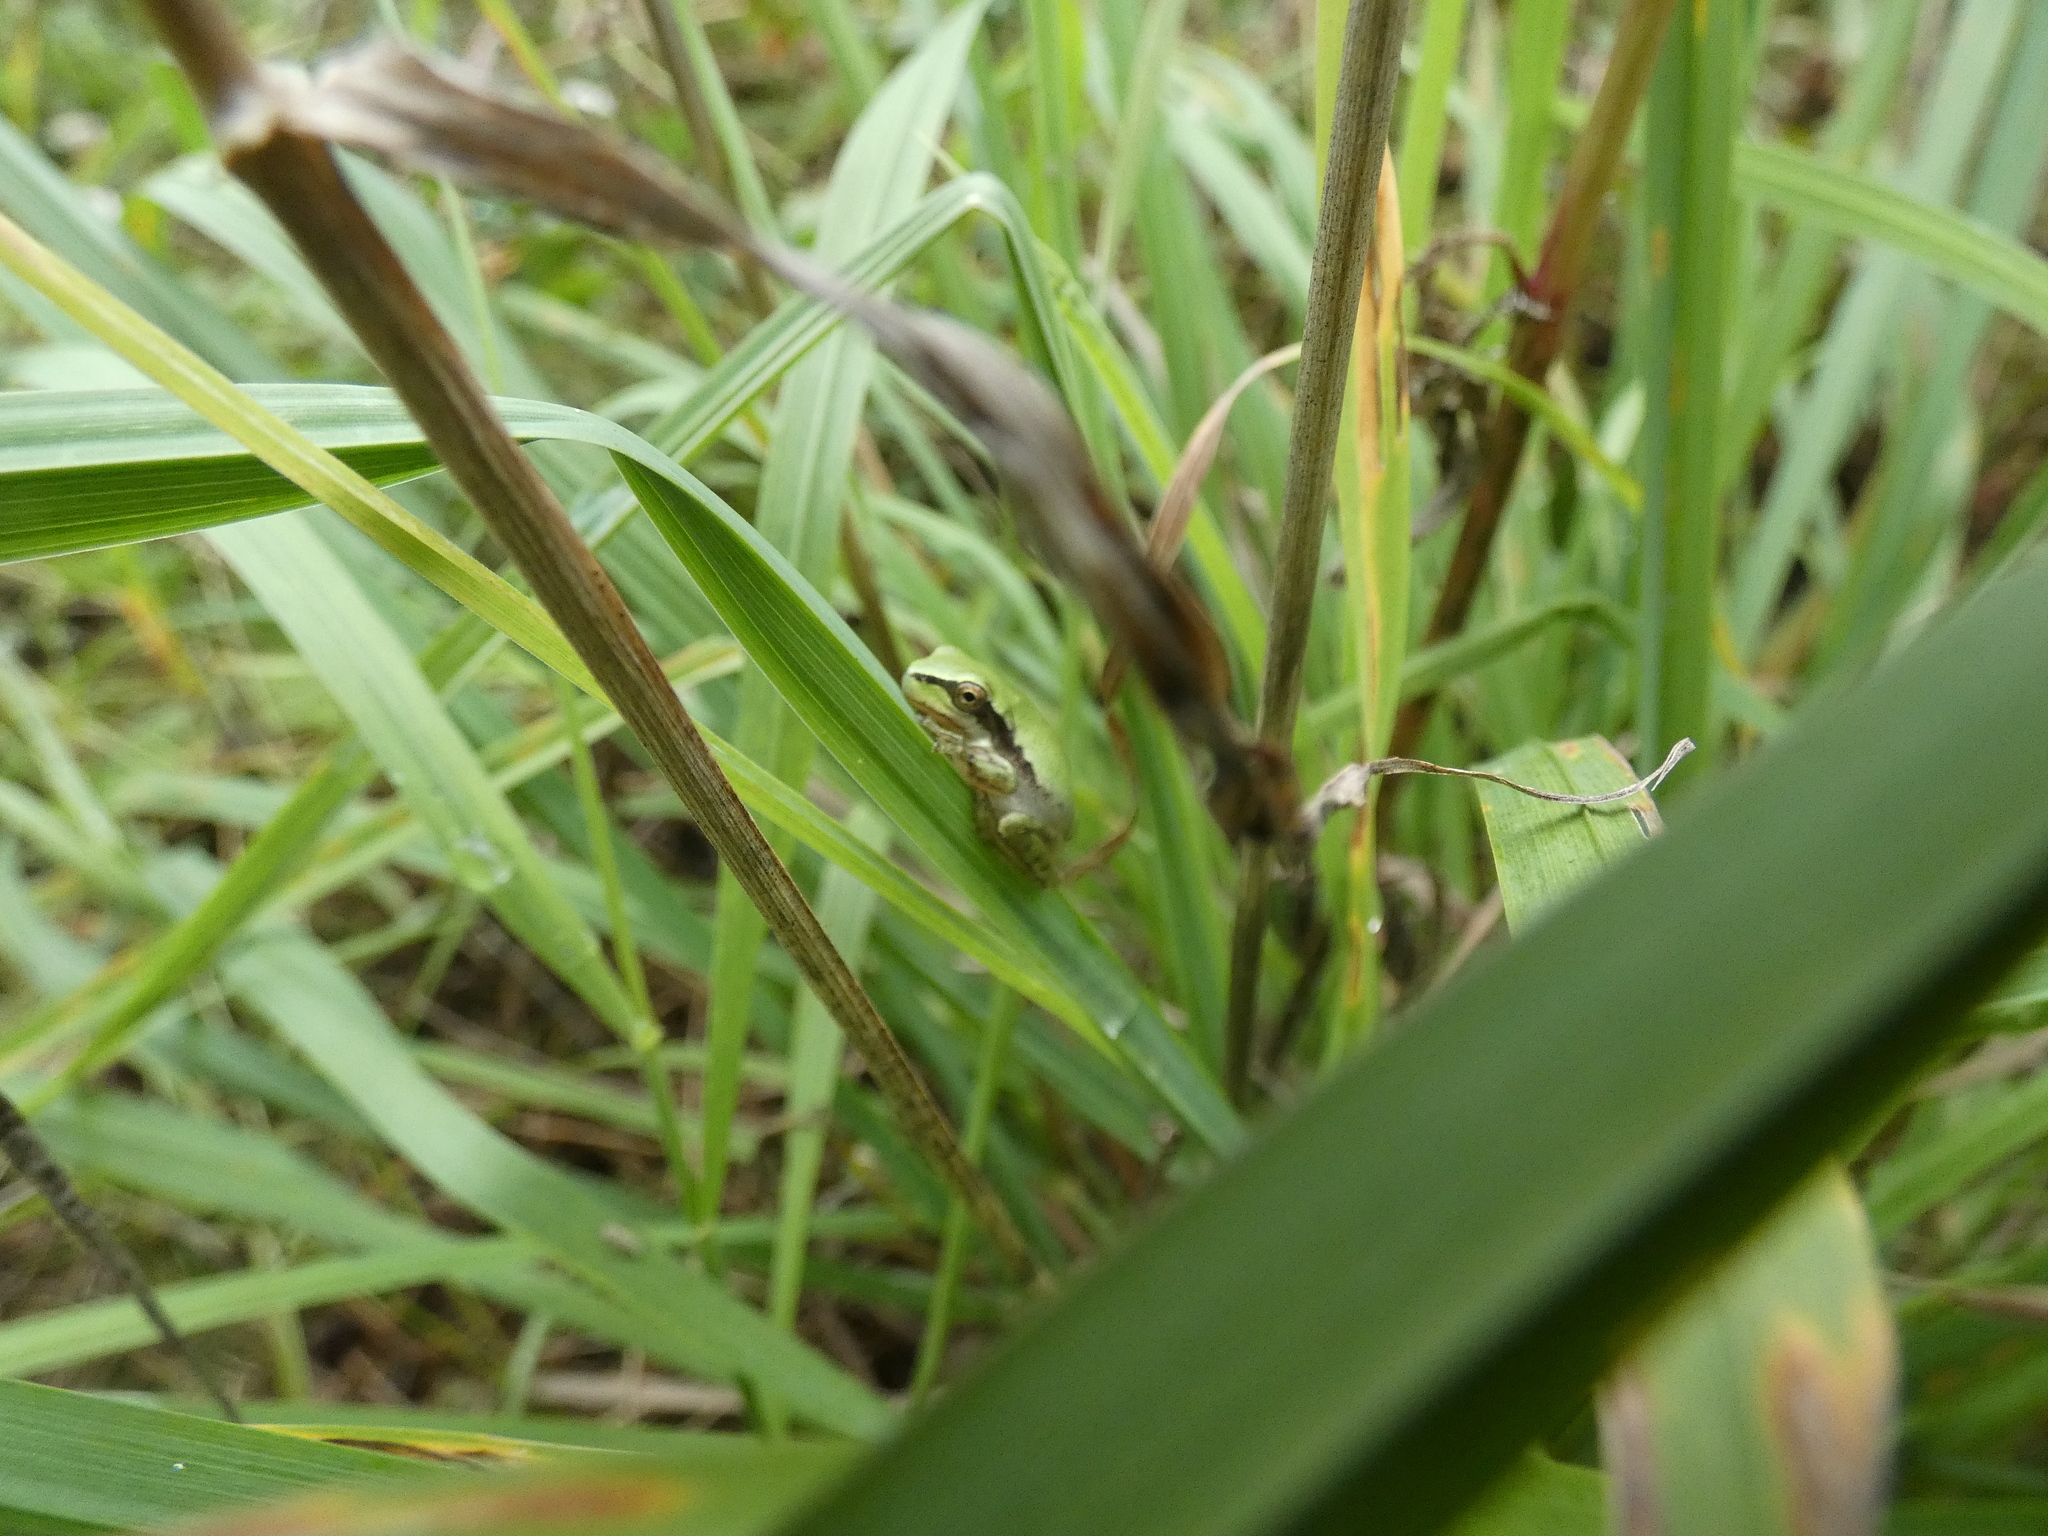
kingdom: Animalia
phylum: Chordata
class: Amphibia
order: Anura
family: Hylidae
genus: Hyla
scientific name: Hyla meridionalis
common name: Stripeless tree frog
